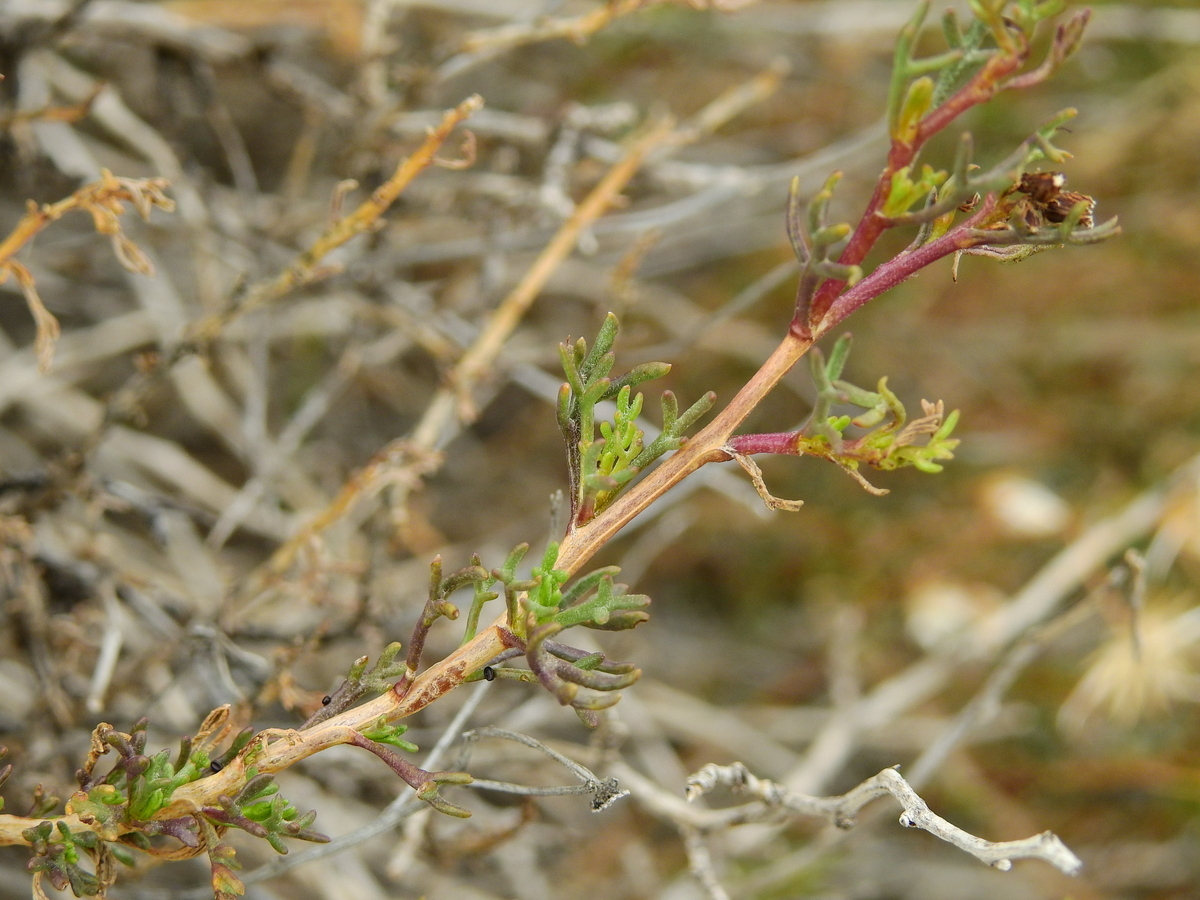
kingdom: Plantae
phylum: Tracheophyta
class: Magnoliopsida
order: Asterales
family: Asteraceae
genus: Senecio
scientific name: Senecio subulatus
